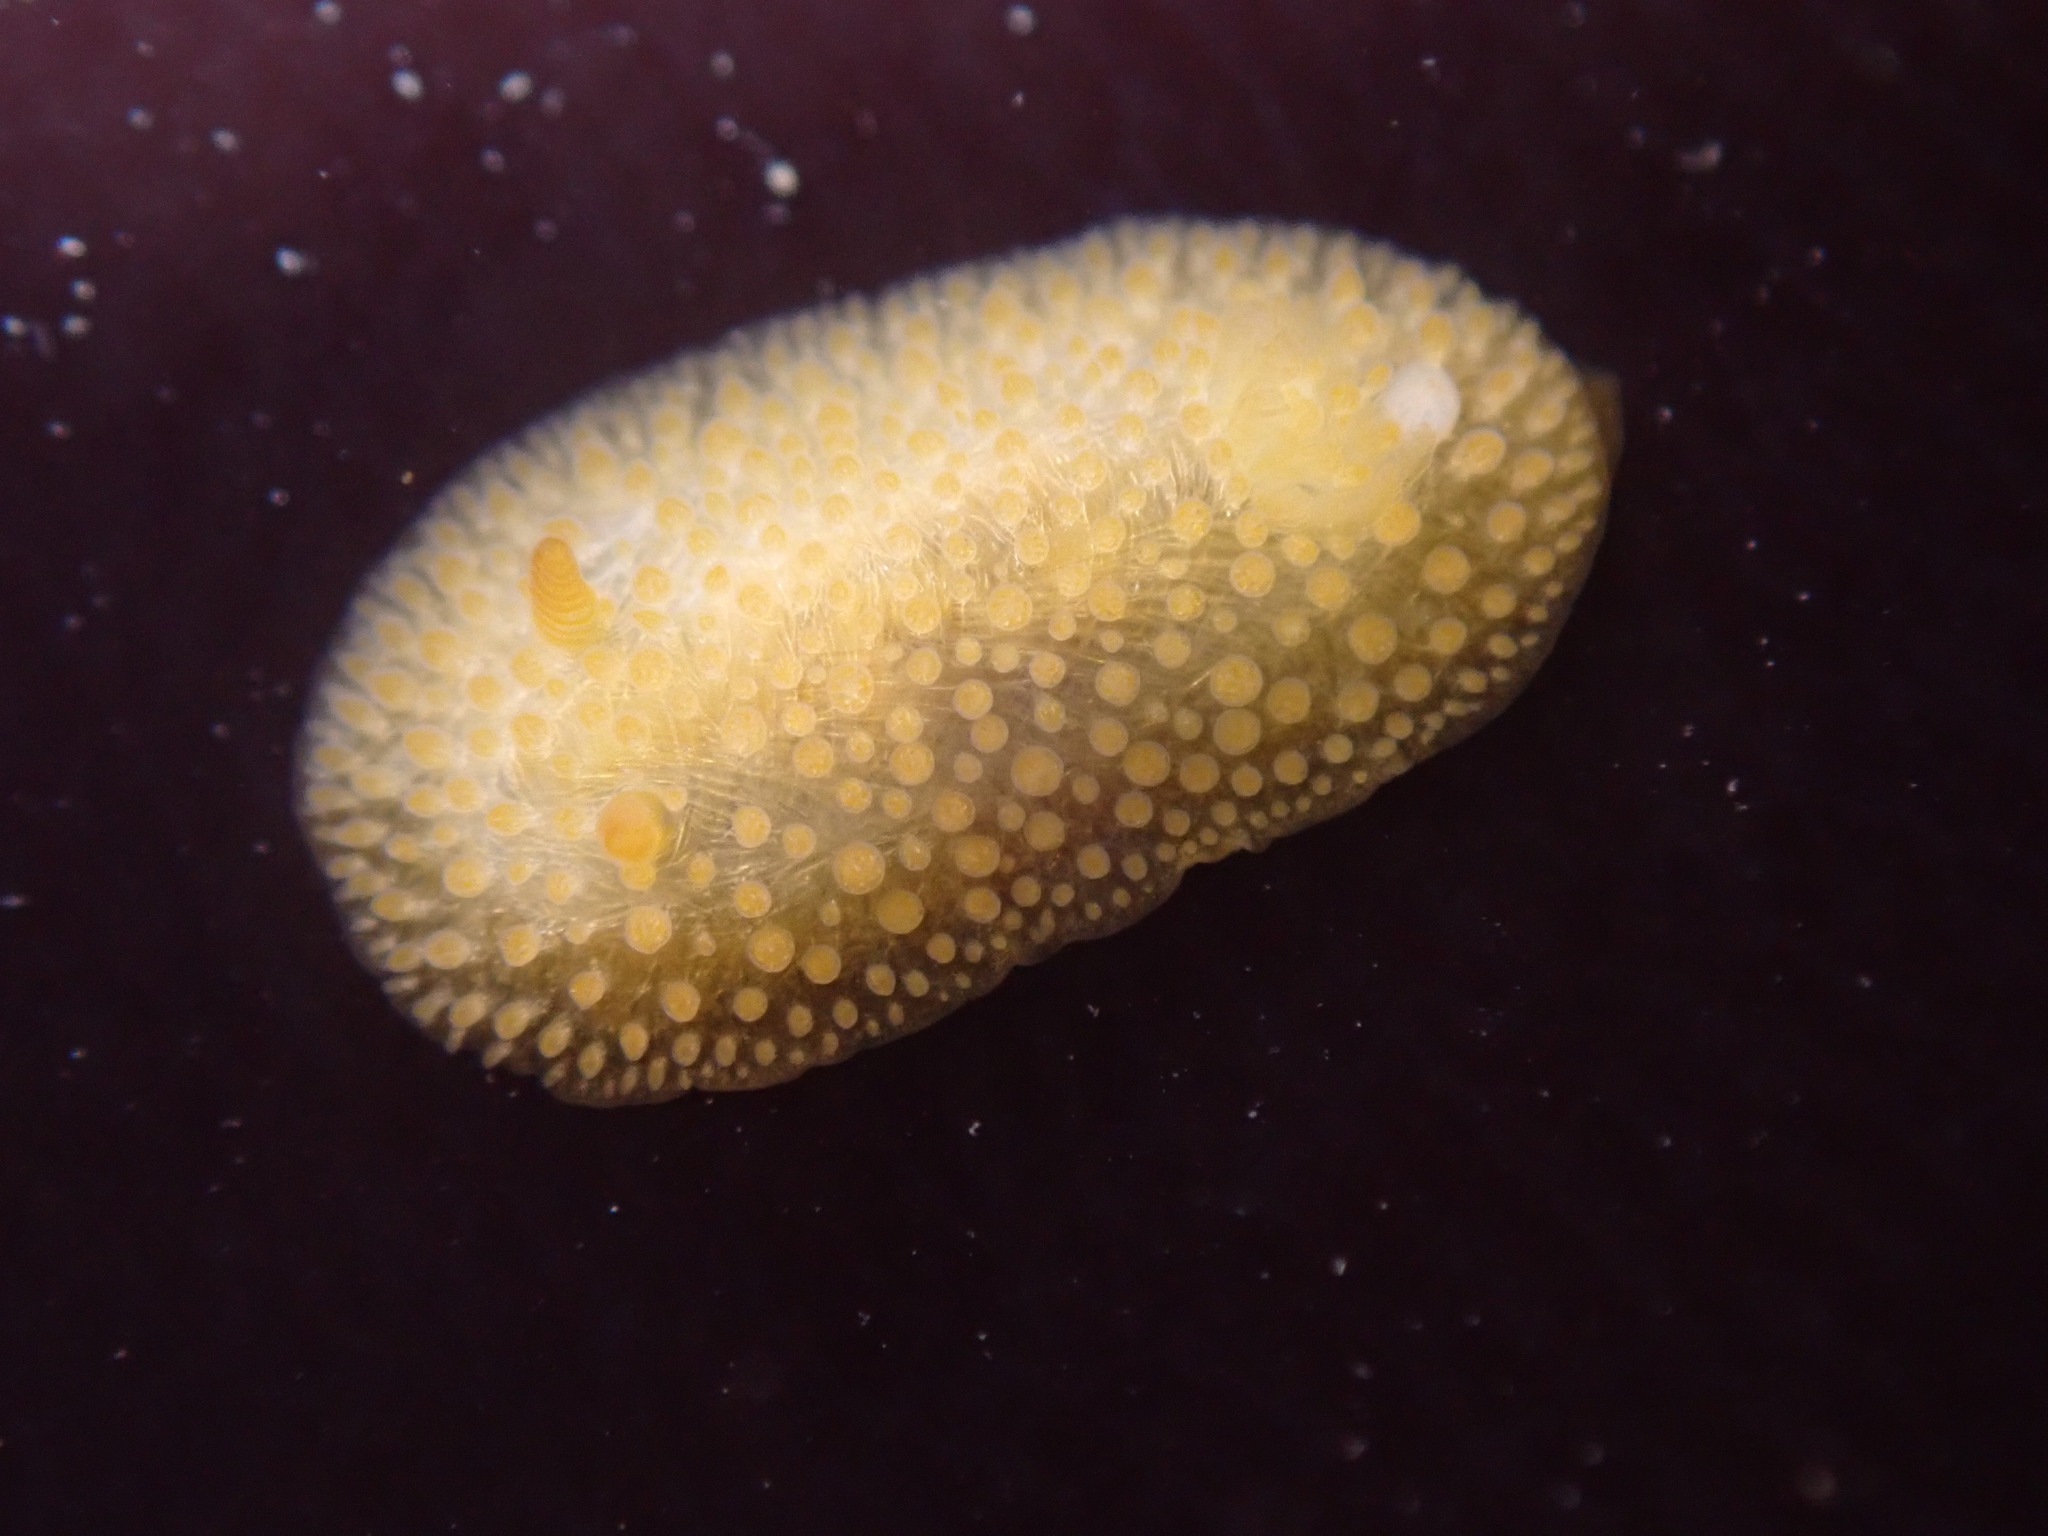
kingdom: Animalia
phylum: Mollusca
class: Gastropoda
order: Nudibranchia
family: Onchidorididae
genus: Atalodoris
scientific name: Atalodoris jannae
